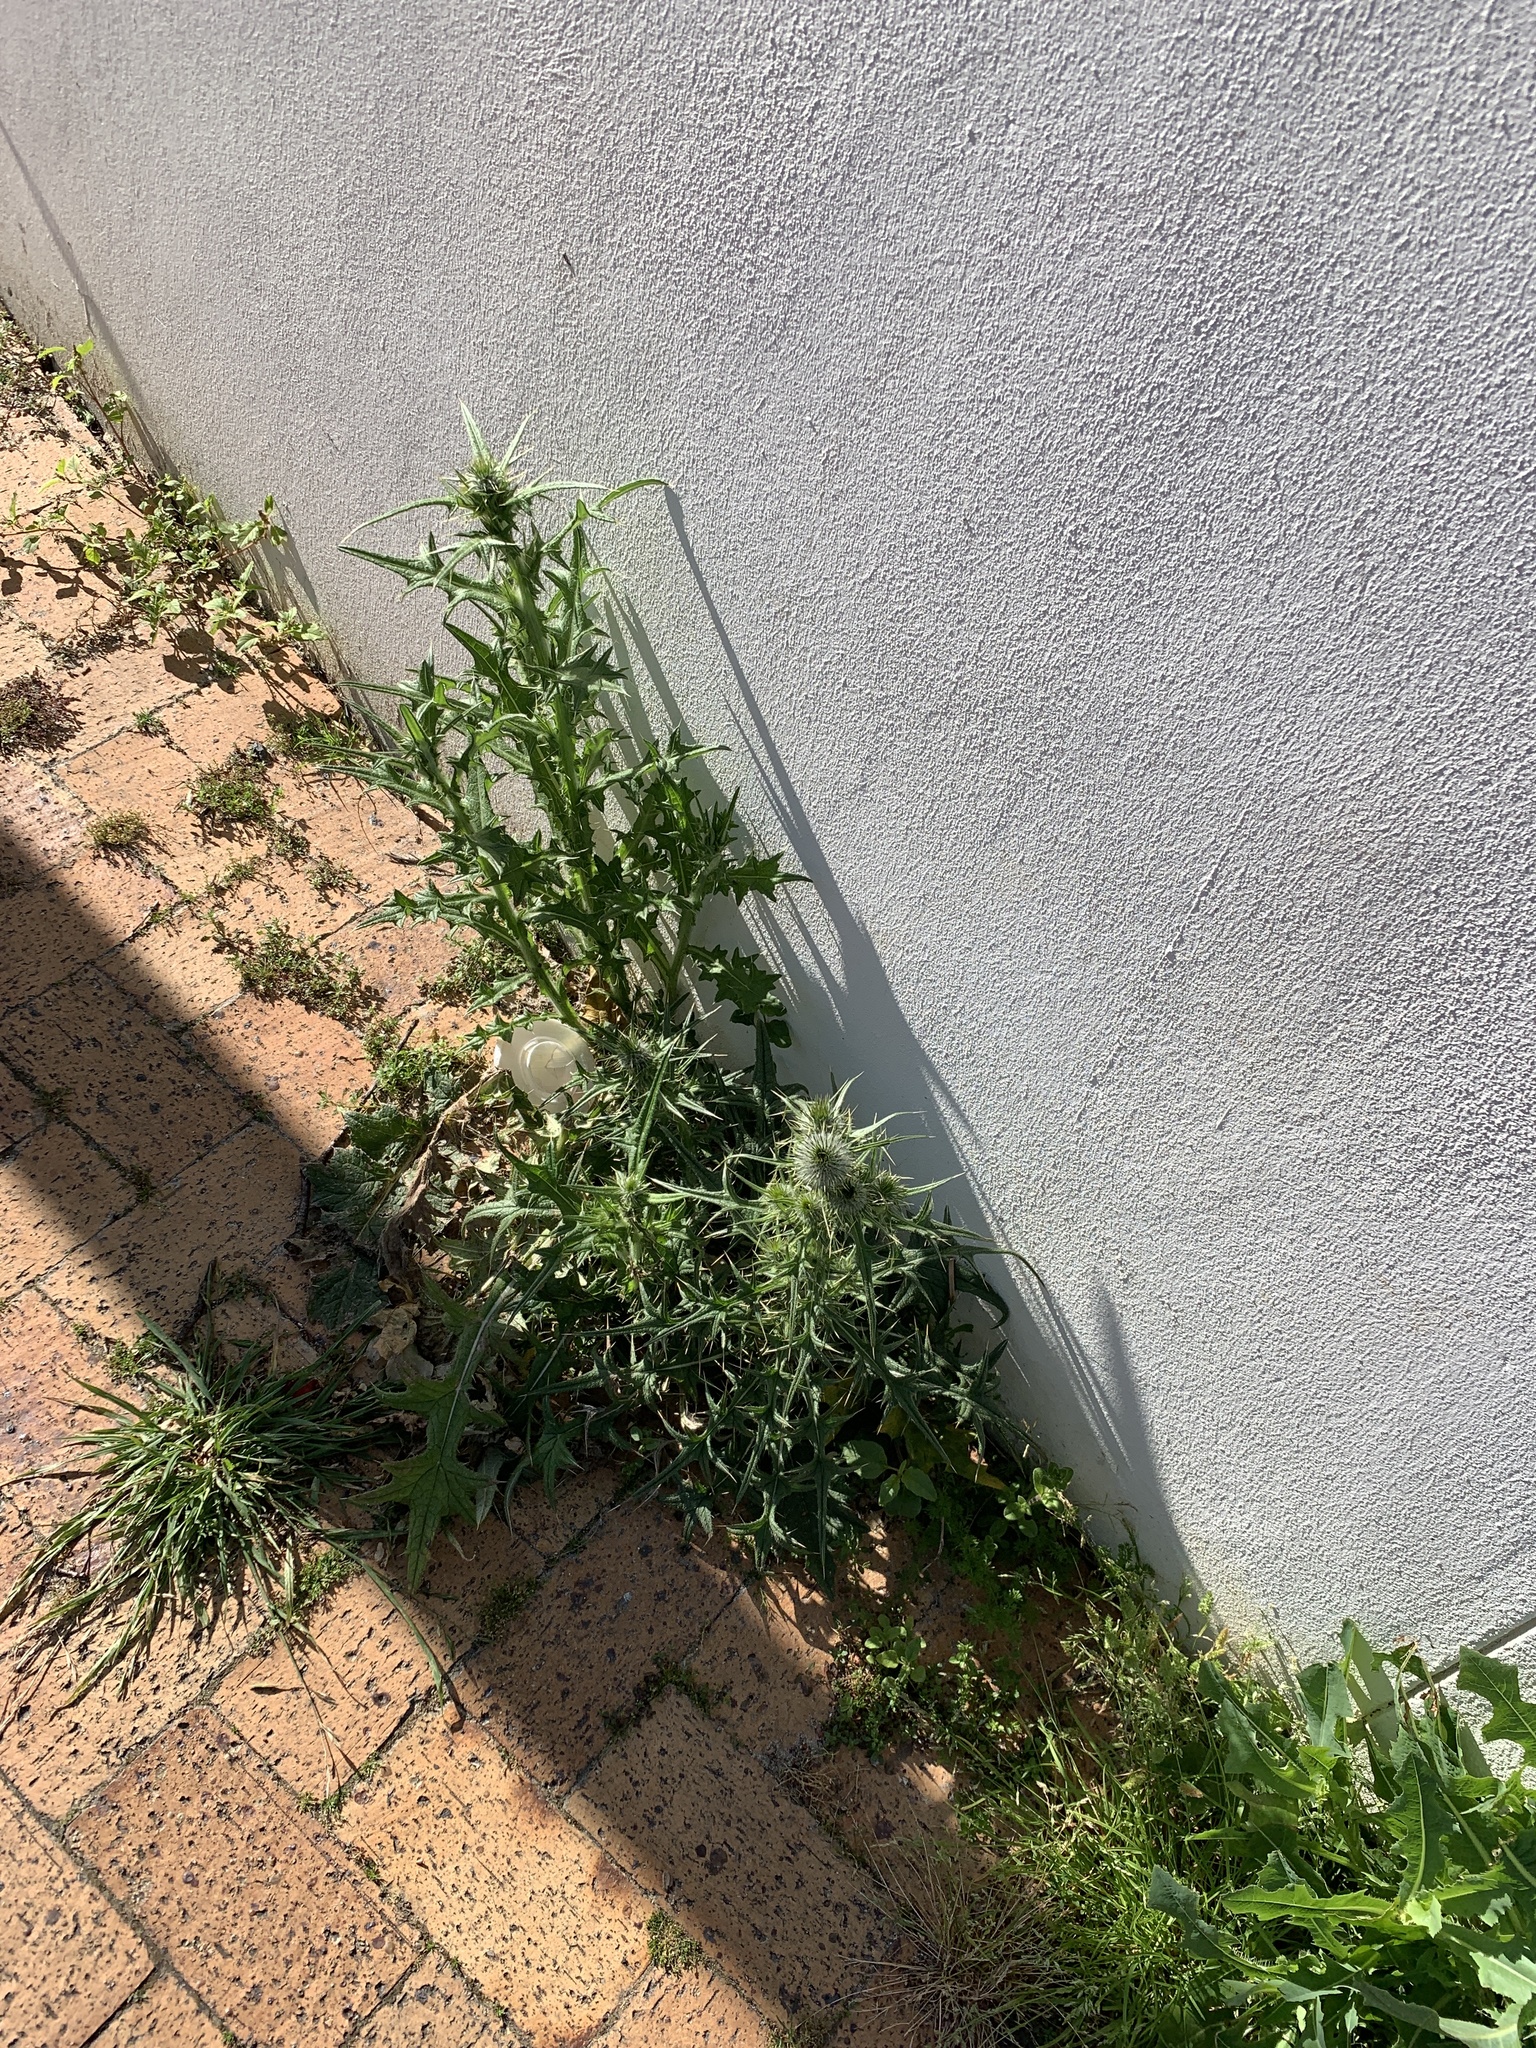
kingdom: Plantae
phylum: Tracheophyta
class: Magnoliopsida
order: Asterales
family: Asteraceae
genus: Cirsium
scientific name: Cirsium vulgare
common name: Bull thistle
